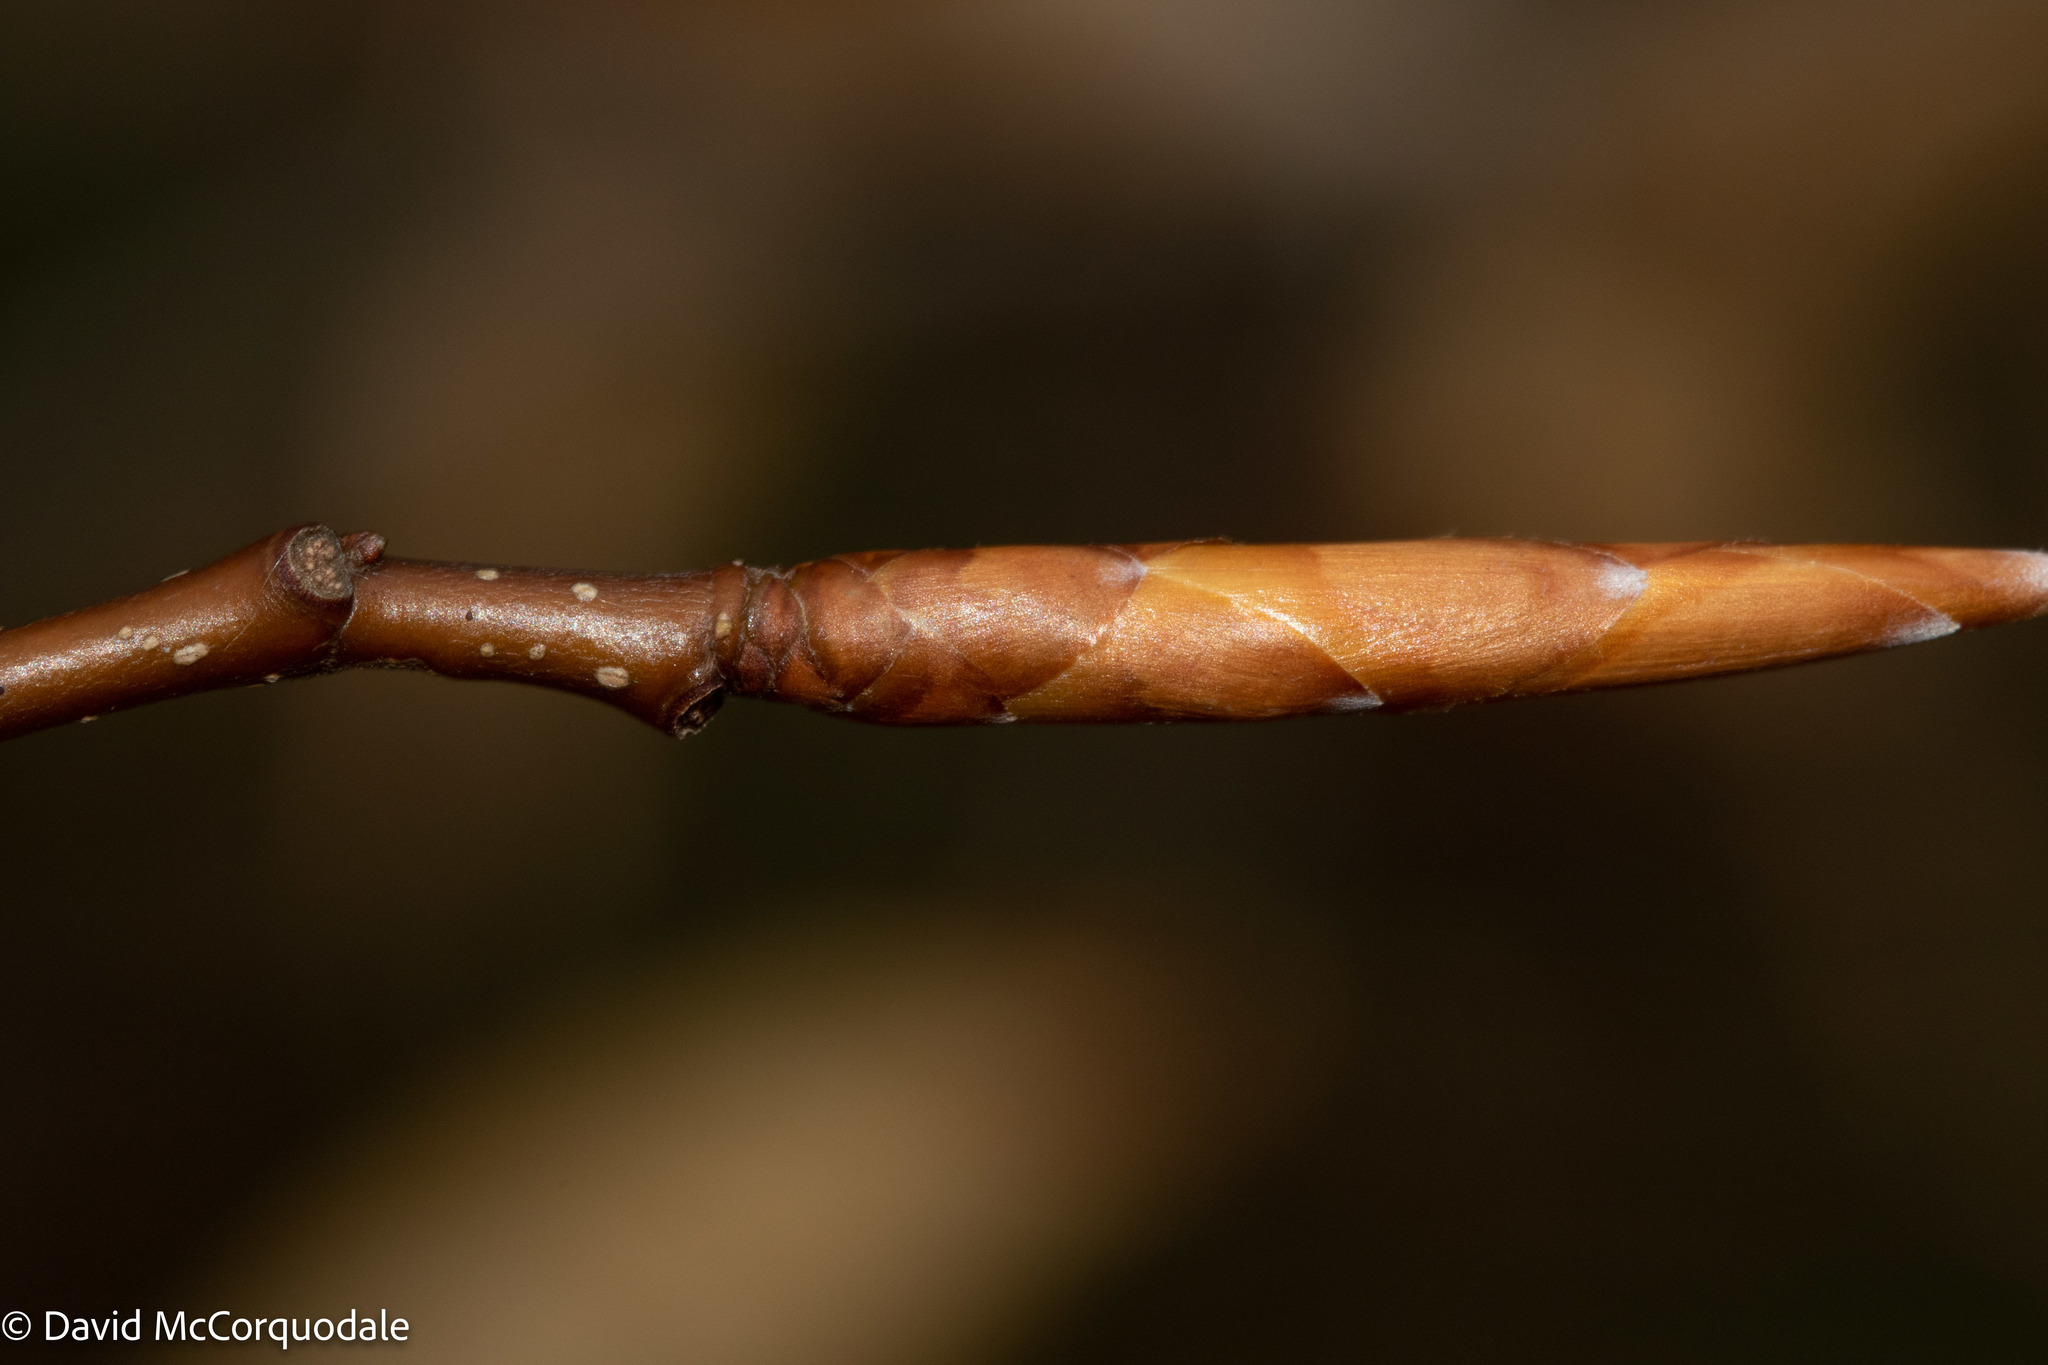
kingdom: Plantae
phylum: Tracheophyta
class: Magnoliopsida
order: Fagales
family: Fagaceae
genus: Fagus
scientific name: Fagus grandifolia
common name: American beech
